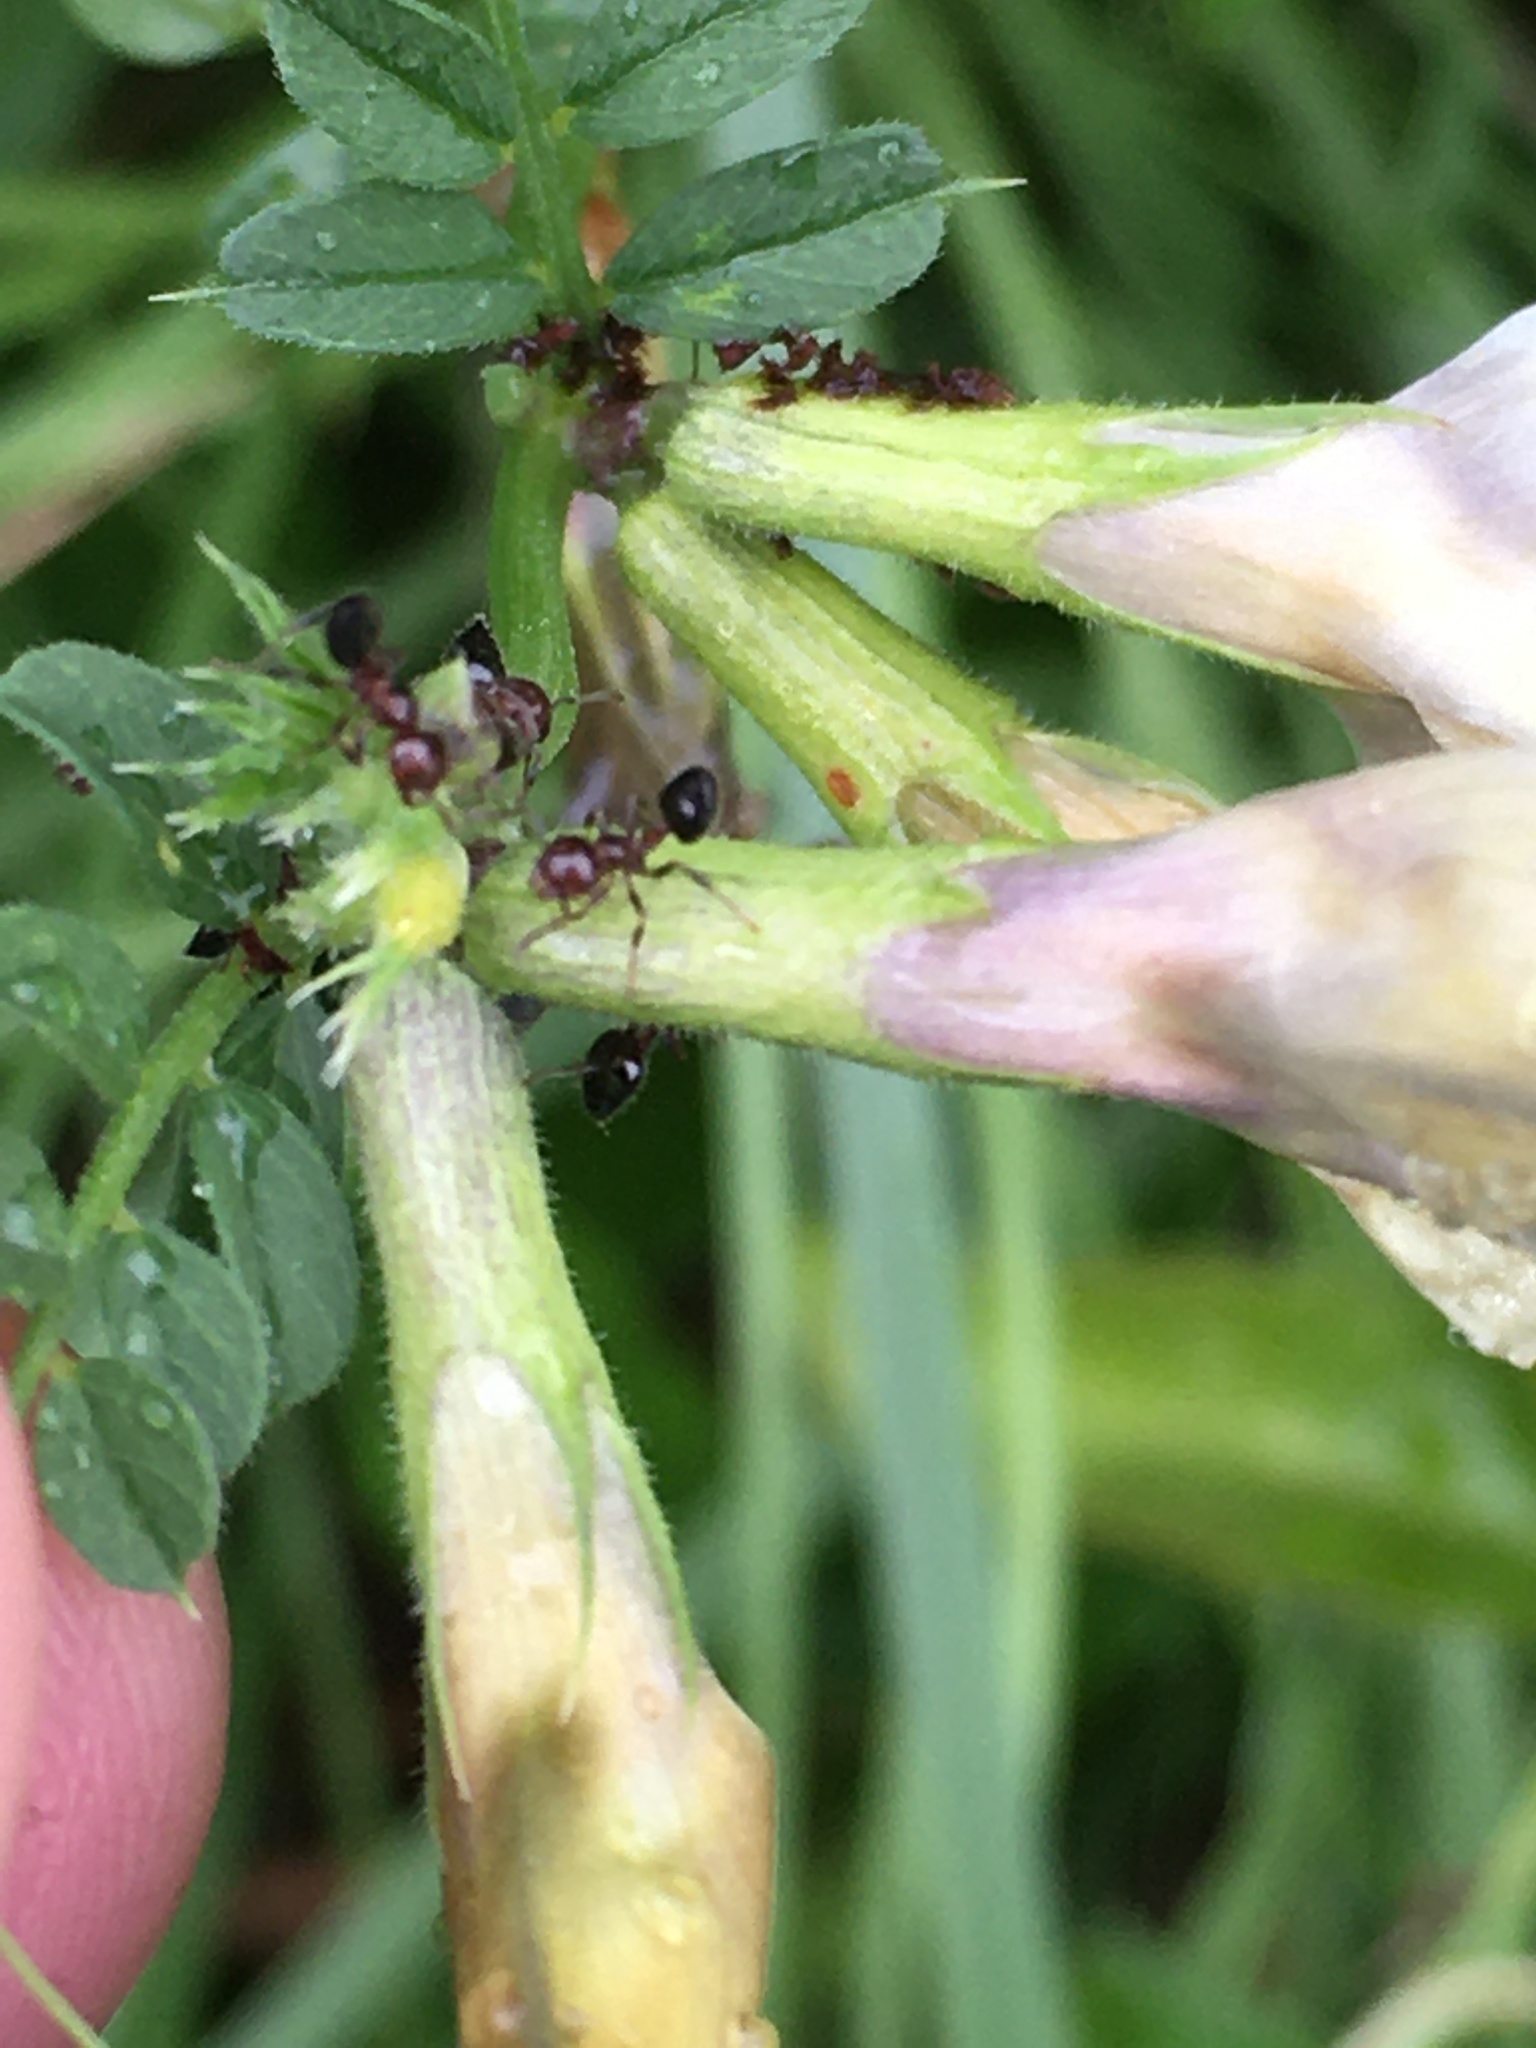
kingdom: Plantae
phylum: Tracheophyta
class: Magnoliopsida
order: Fabales
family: Fabaceae
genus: Vicia
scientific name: Vicia grandiflora
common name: Large yellow vetch
